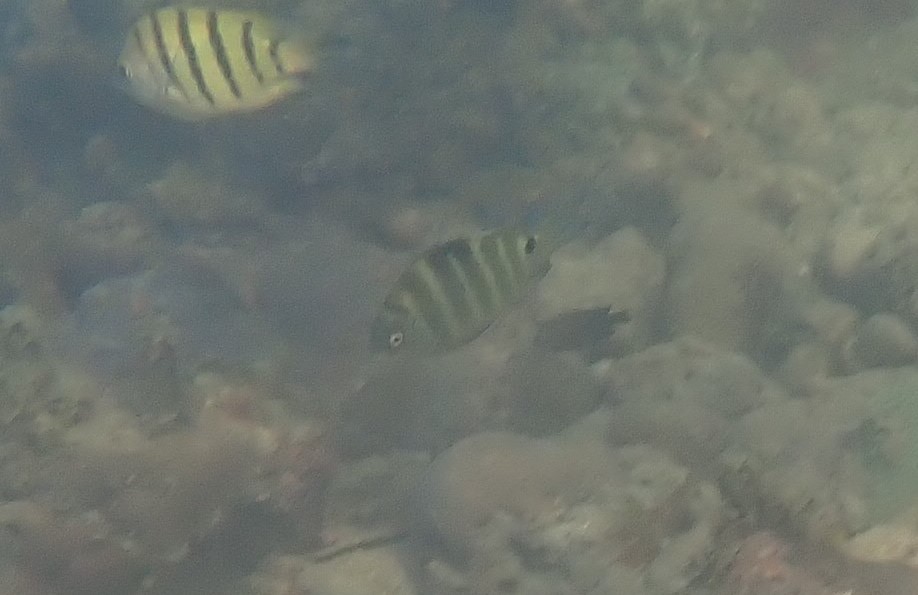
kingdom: Animalia
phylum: Chordata
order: Perciformes
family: Pomacentridae
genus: Abudefduf
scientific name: Abudefduf sordidus
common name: Blackspot sergeant
